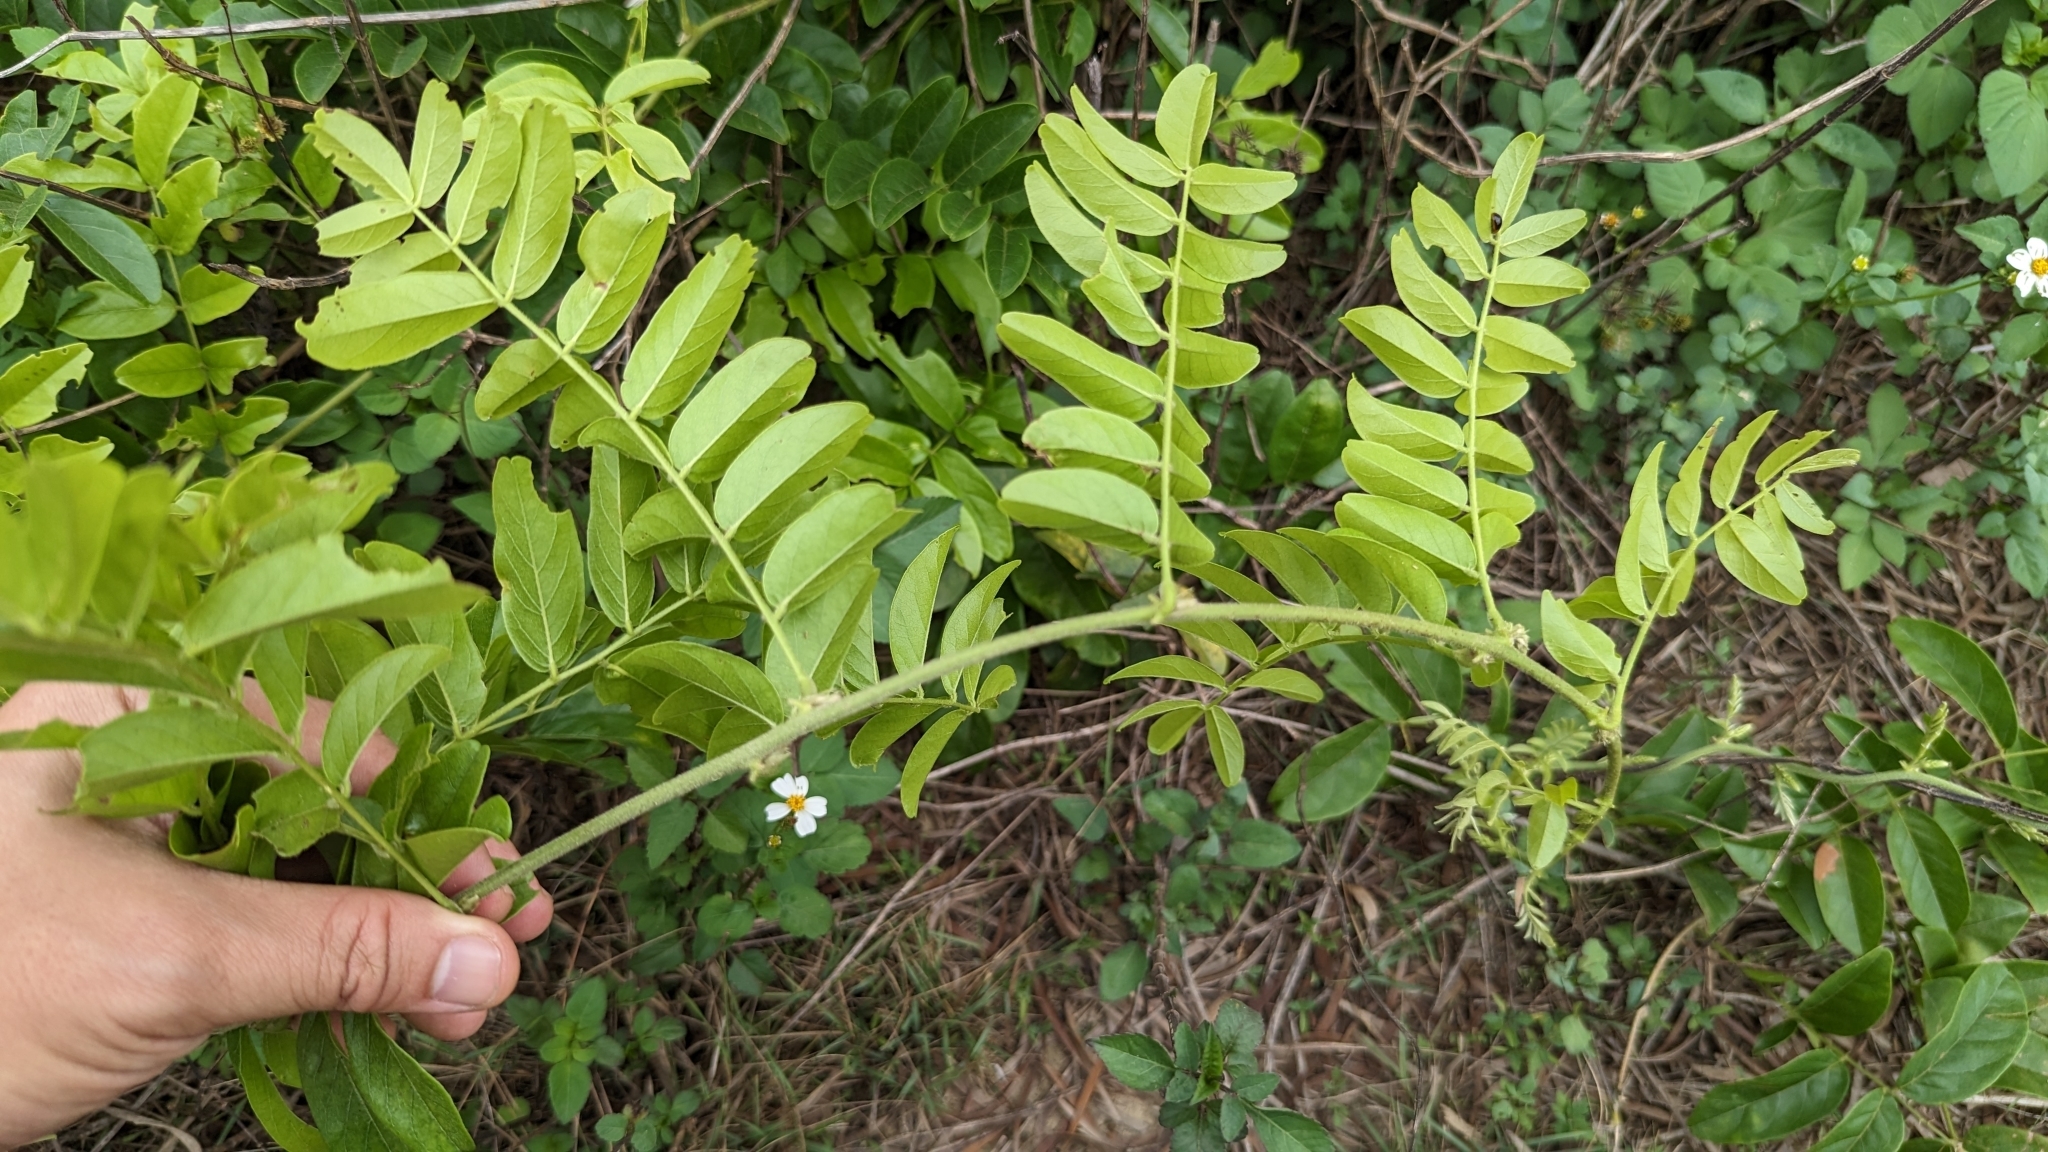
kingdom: Plantae
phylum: Tracheophyta
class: Magnoliopsida
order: Fabales
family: Fabaceae
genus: Wisteriopsis
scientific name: Wisteriopsis reticulata
